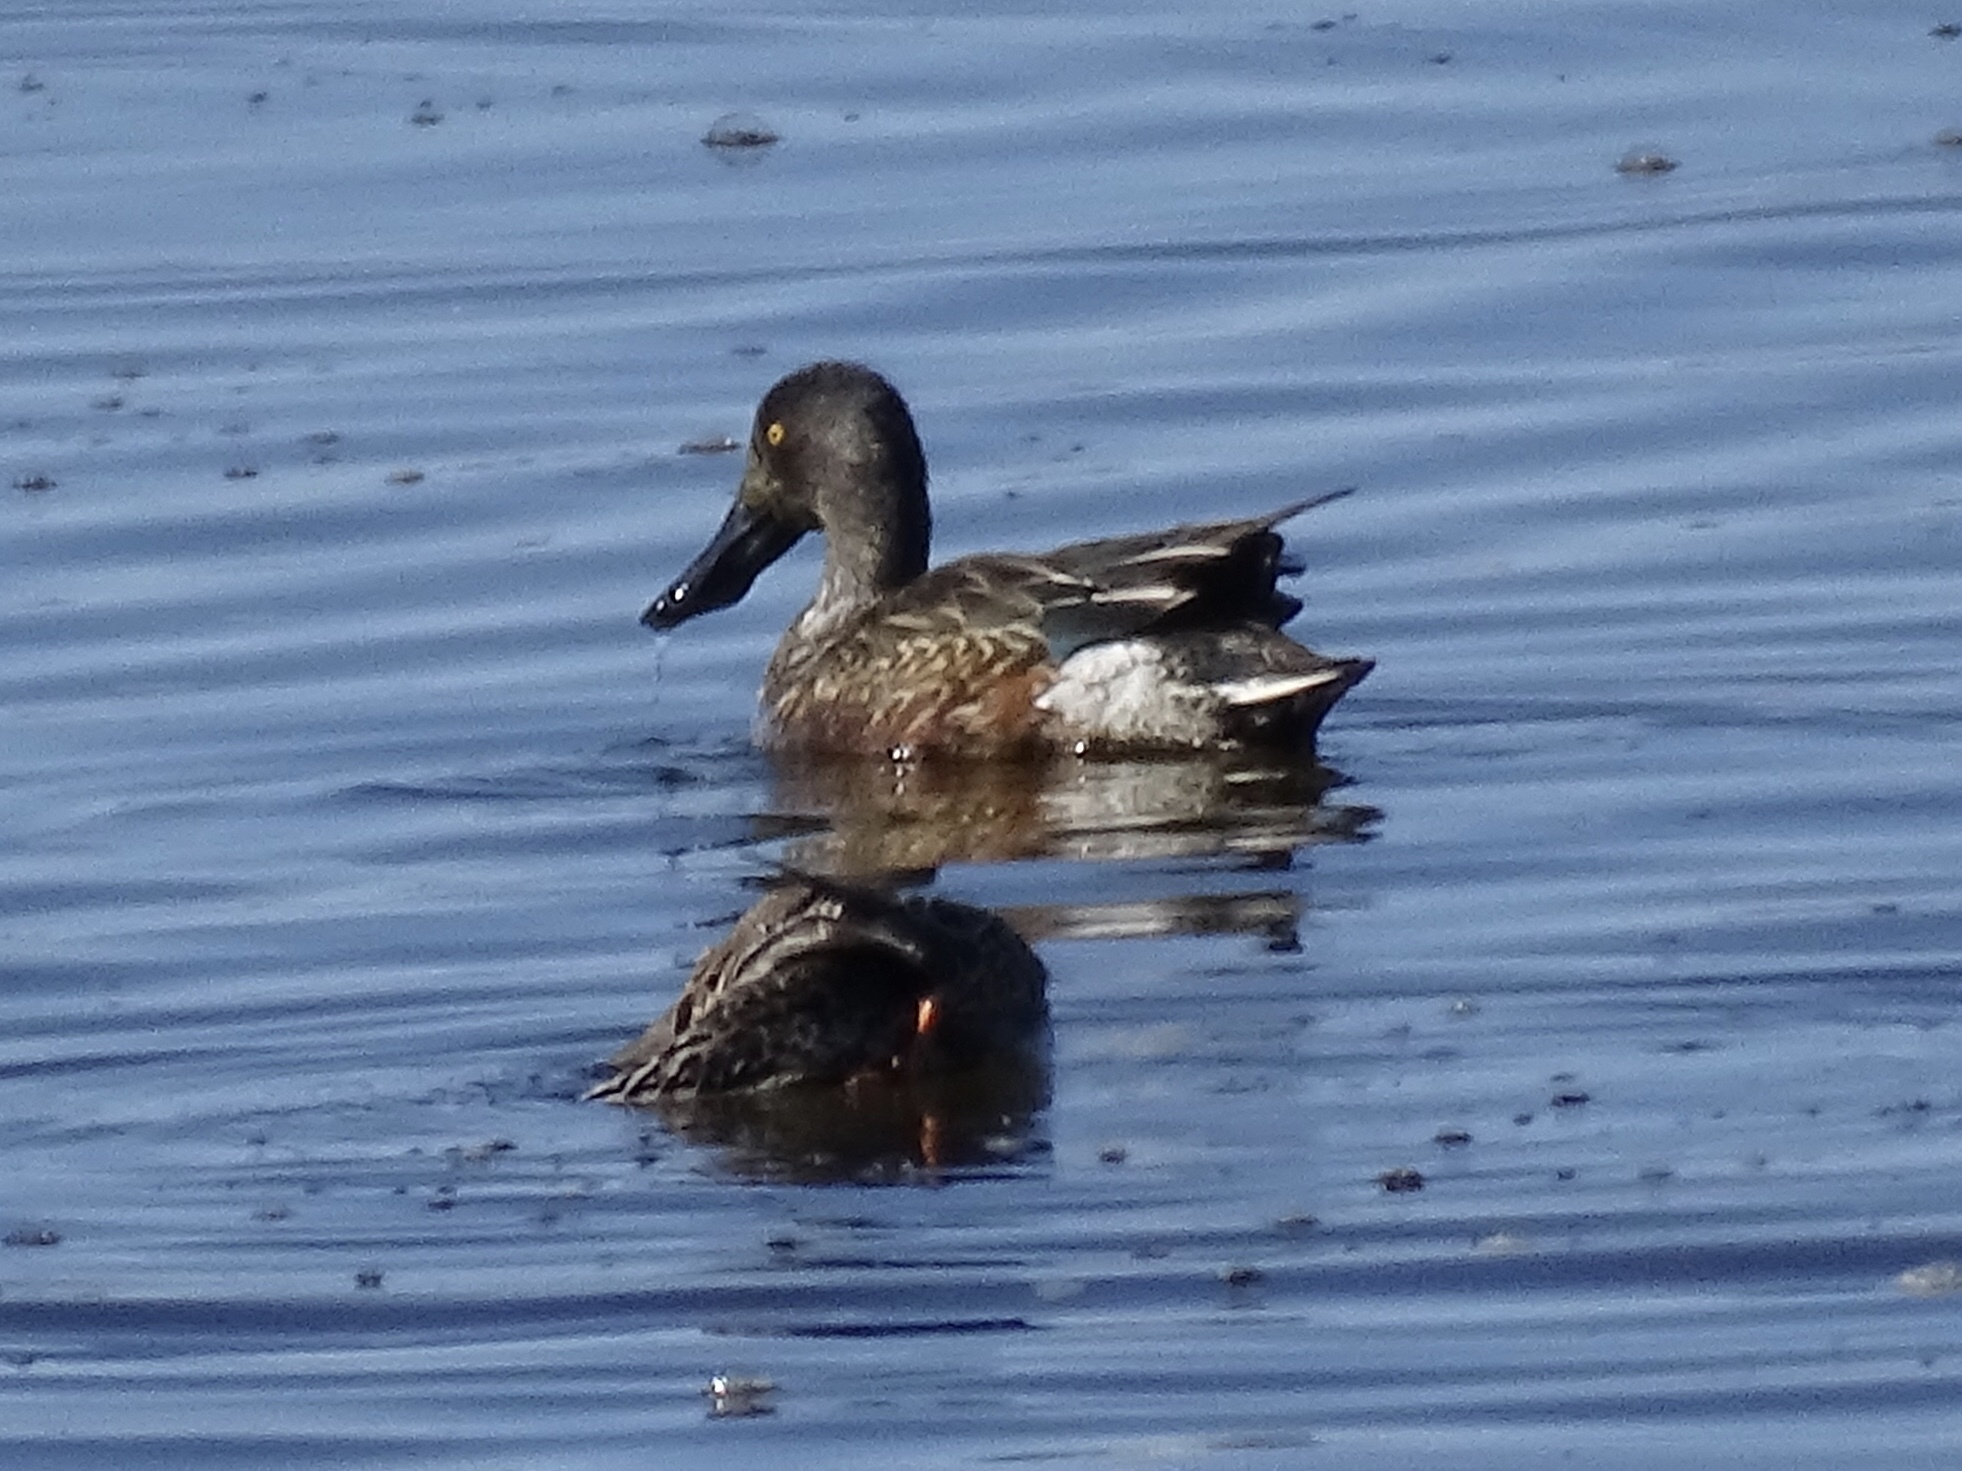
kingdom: Animalia
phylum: Chordata
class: Aves
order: Anseriformes
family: Anatidae
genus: Spatula
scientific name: Spatula clypeata
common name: Northern shoveler
